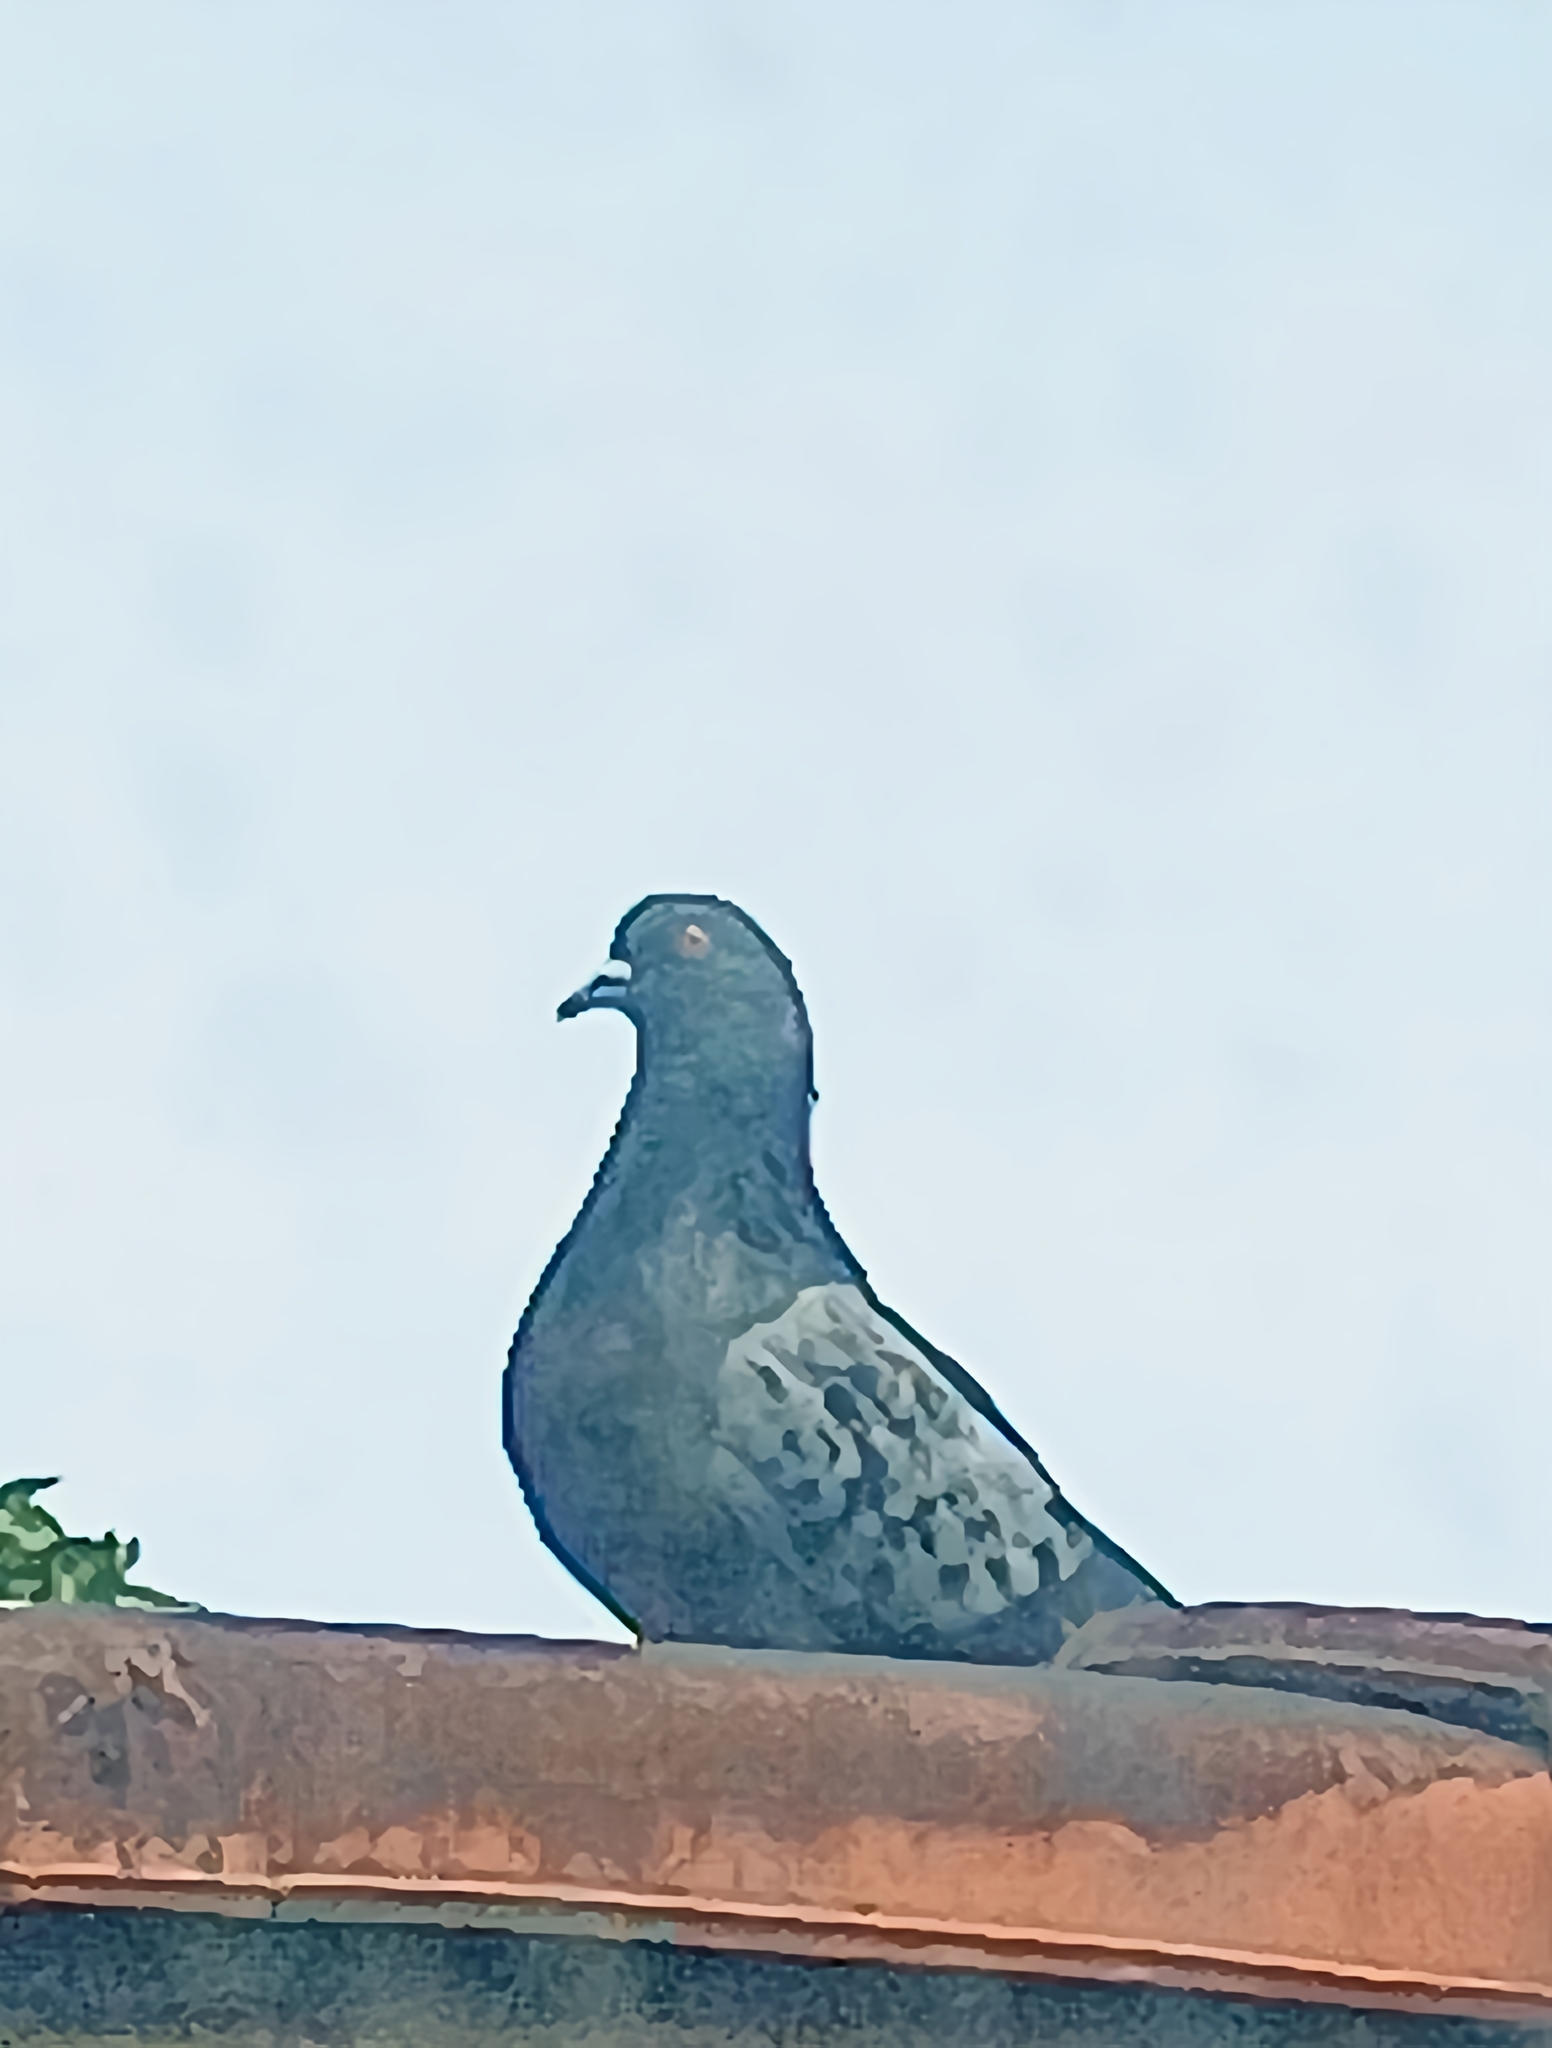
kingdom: Animalia
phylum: Chordata
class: Aves
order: Columbiformes
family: Columbidae
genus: Columba
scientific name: Columba livia
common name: Rock pigeon
